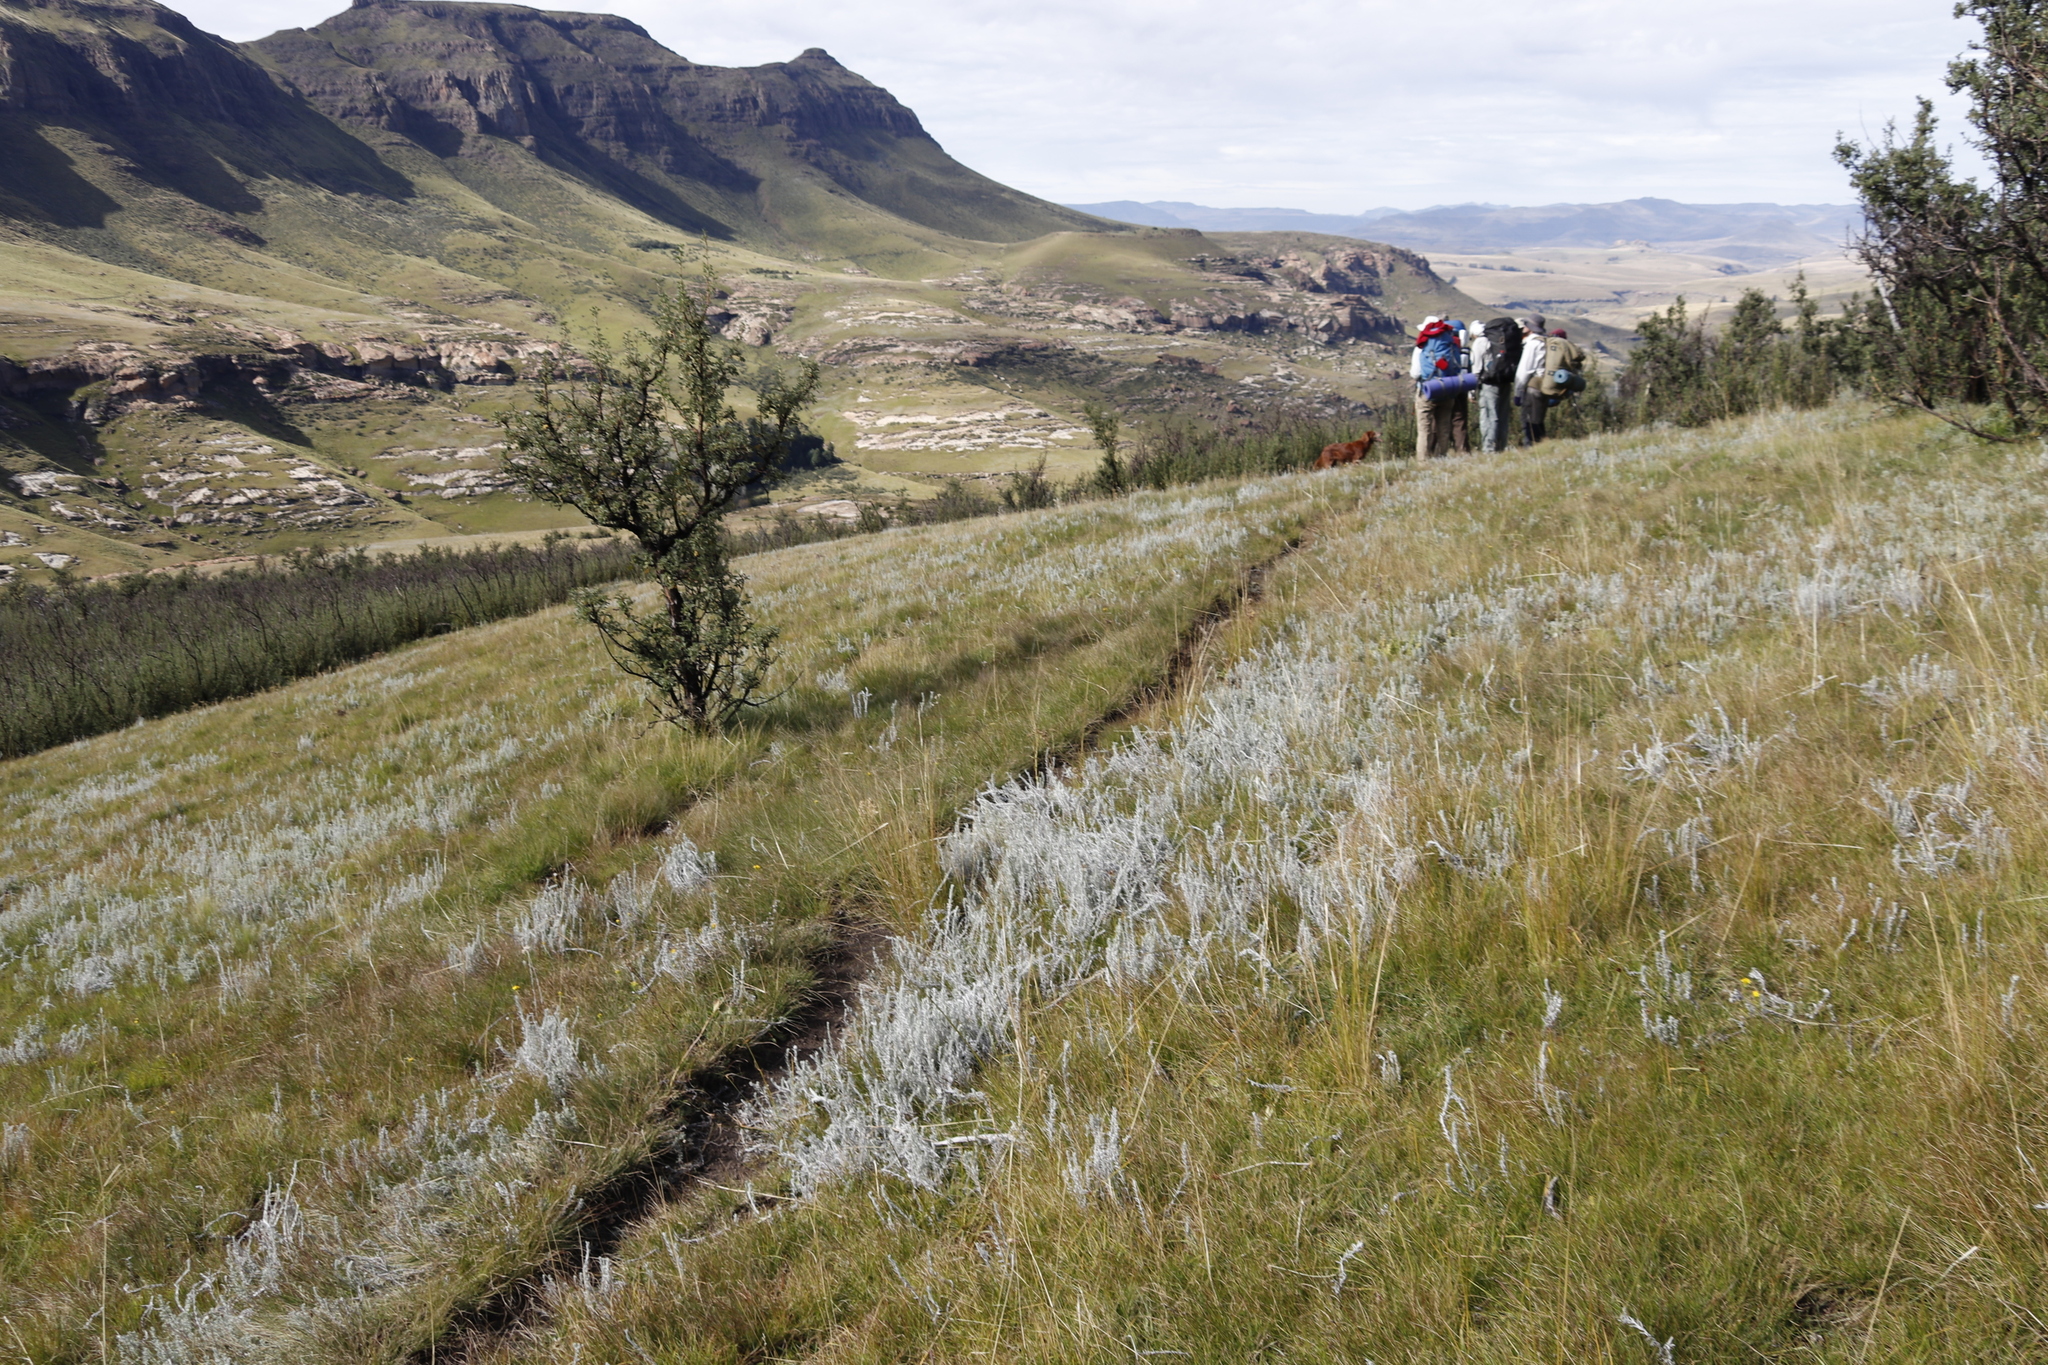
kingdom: Plantae
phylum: Tracheophyta
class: Magnoliopsida
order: Rosales
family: Rosaceae
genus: Leucosidea
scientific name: Leucosidea sericea
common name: Oldwood
